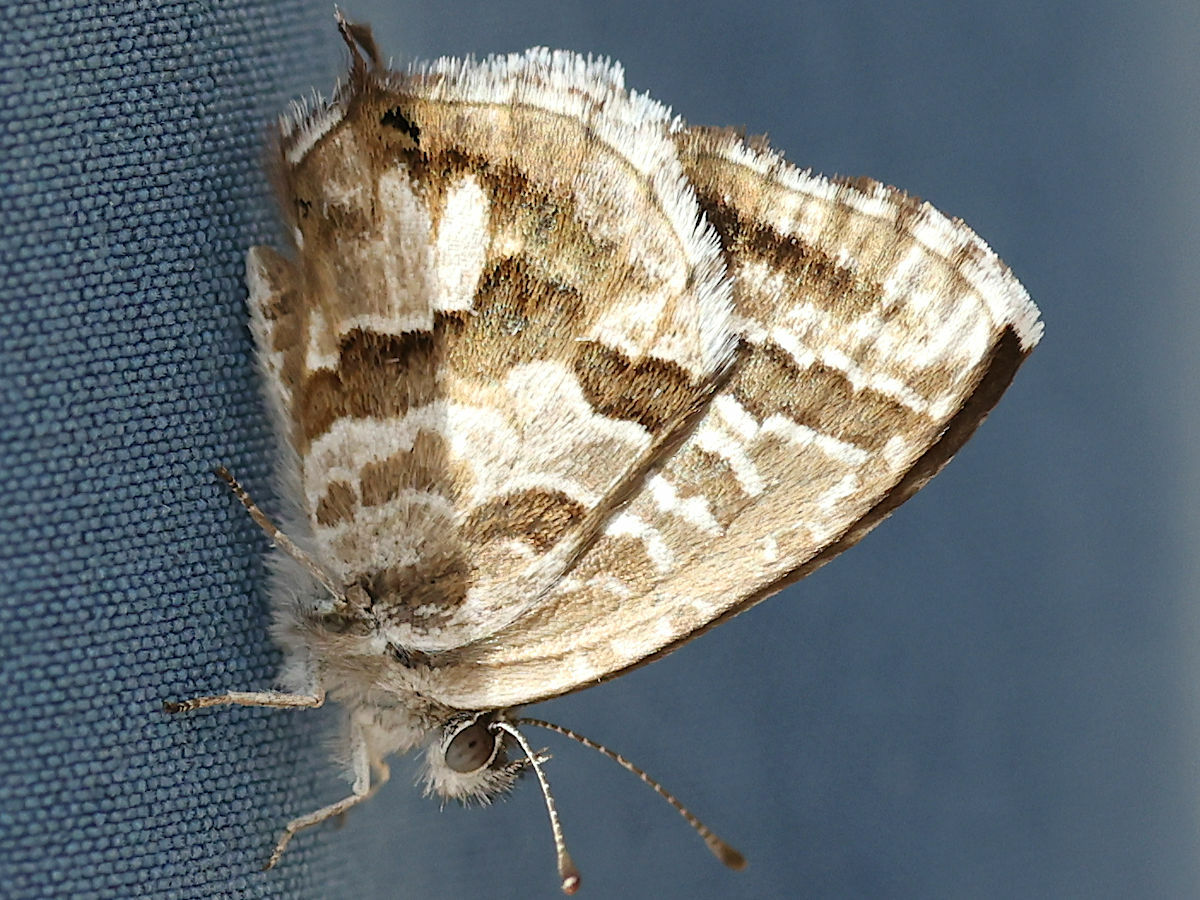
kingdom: Animalia
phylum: Arthropoda
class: Insecta
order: Lepidoptera
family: Lycaenidae
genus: Cacyreus
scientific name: Cacyreus marshalli
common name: Geranium bronze
